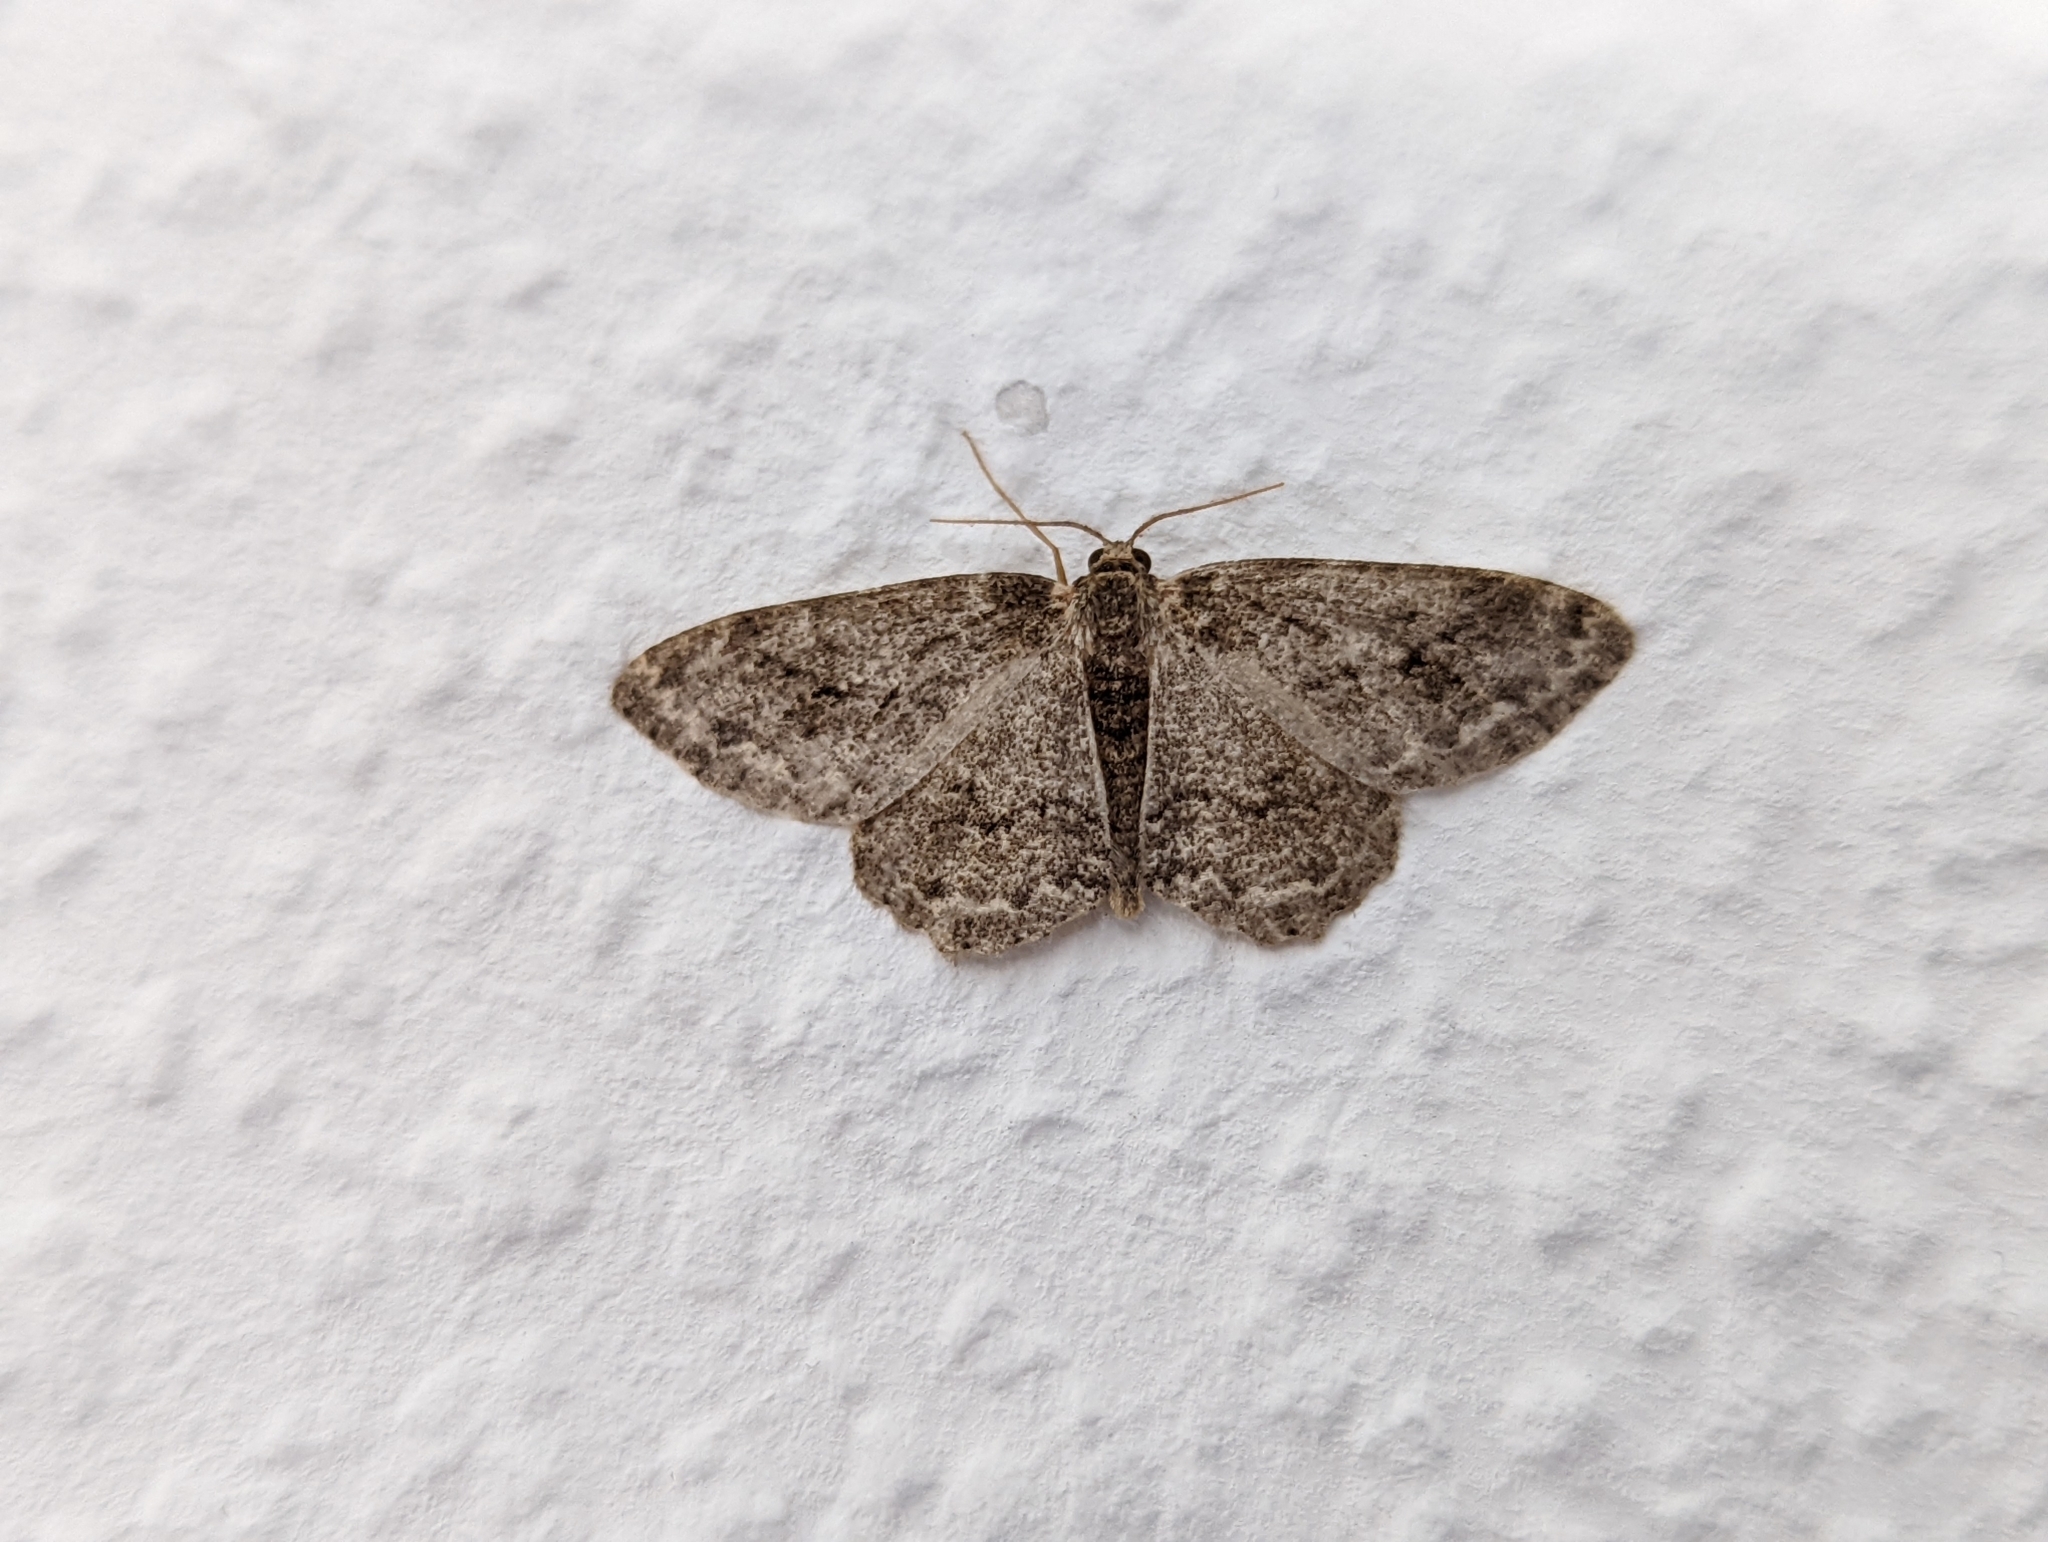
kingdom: Animalia
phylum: Arthropoda
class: Insecta
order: Lepidoptera
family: Geometridae
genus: Ectropis
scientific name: Ectropis crepuscularia
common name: Engrailed
